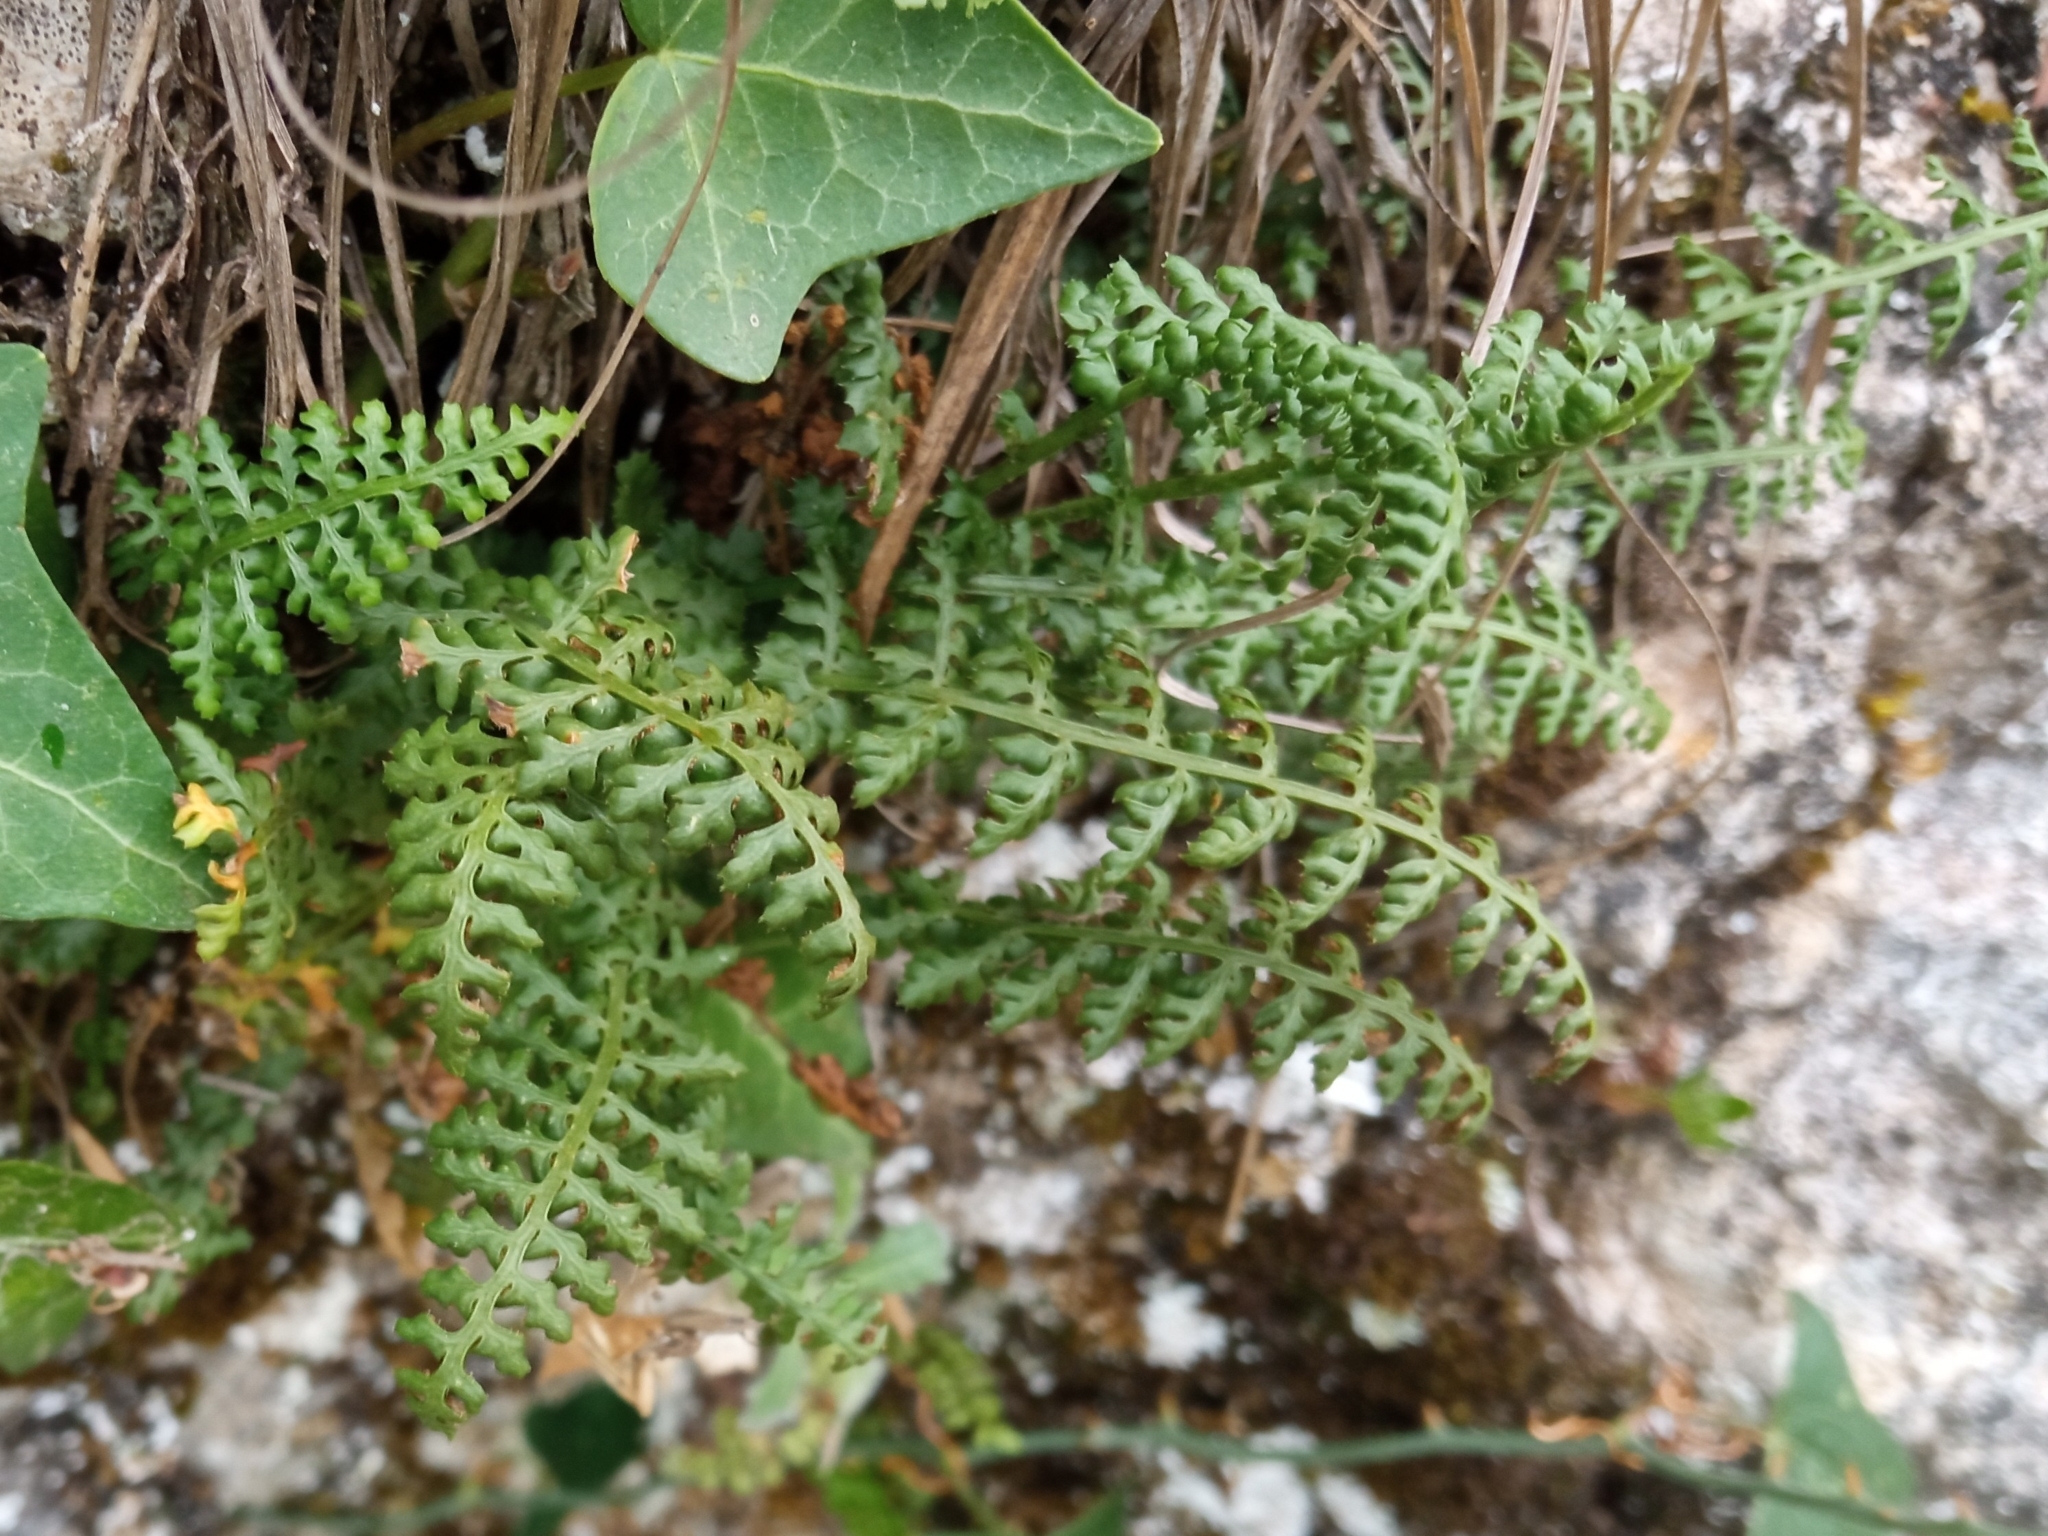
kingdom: Plantae
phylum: Tracheophyta
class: Polypodiopsida
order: Polypodiales
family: Aspleniaceae
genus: Asplenium
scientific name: Asplenium fontanum
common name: Fountain spleenwort
